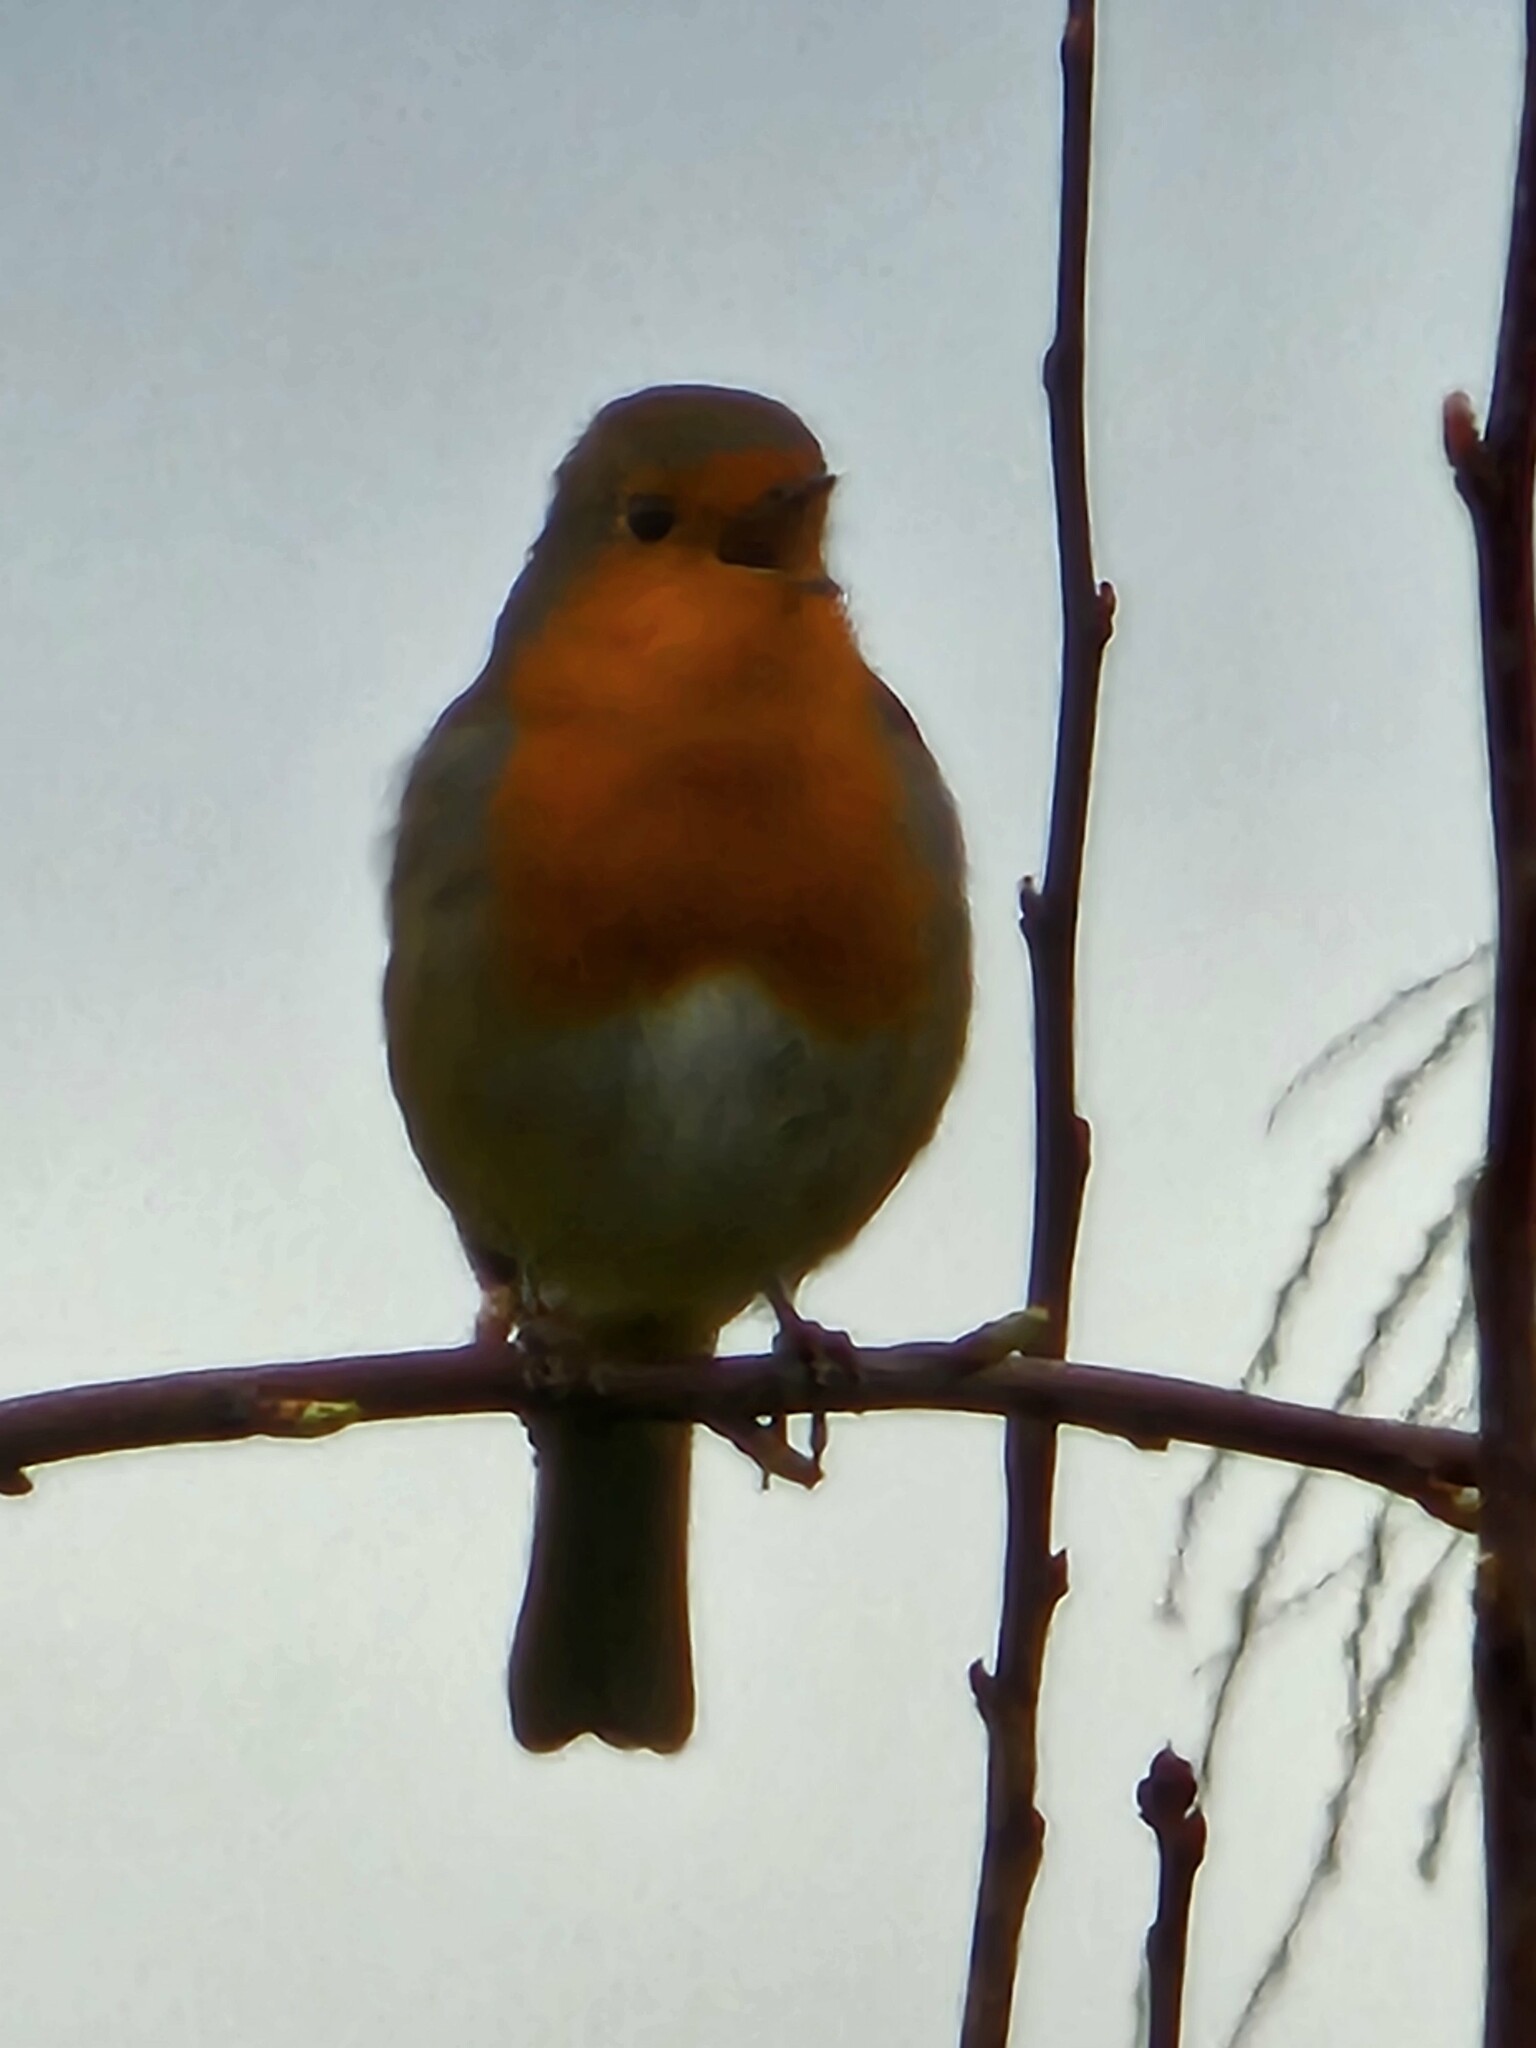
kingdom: Animalia
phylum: Chordata
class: Aves
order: Passeriformes
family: Muscicapidae
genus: Erithacus
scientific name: Erithacus rubecula
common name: European robin
